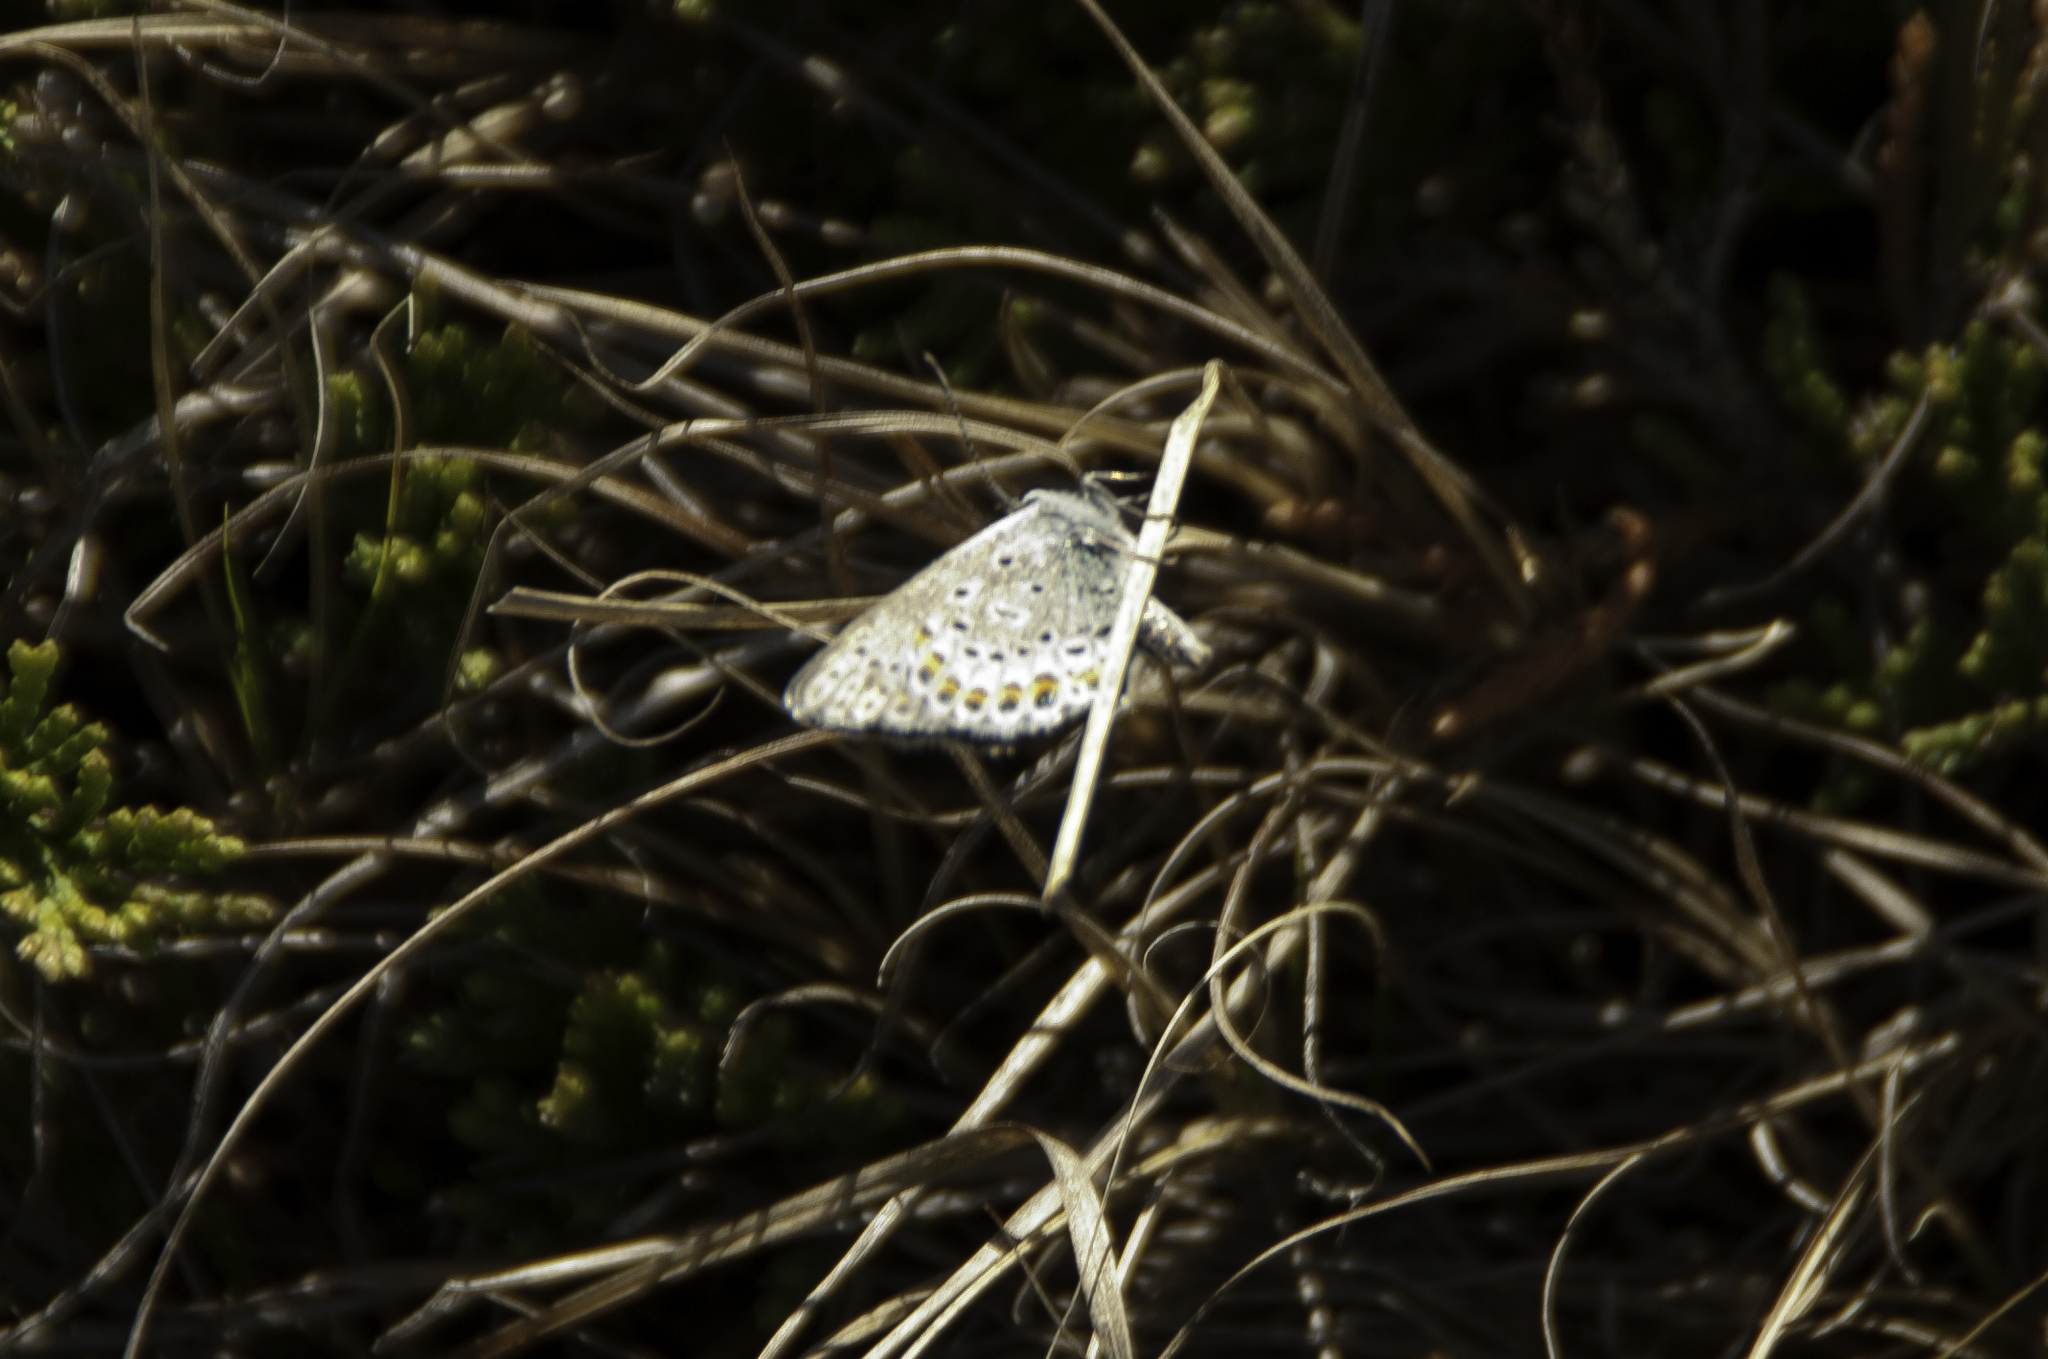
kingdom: Animalia
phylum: Arthropoda
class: Insecta
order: Lepidoptera
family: Lycaenidae
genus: Lycaeides
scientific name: Lycaeides melissa
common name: Melissa blue
